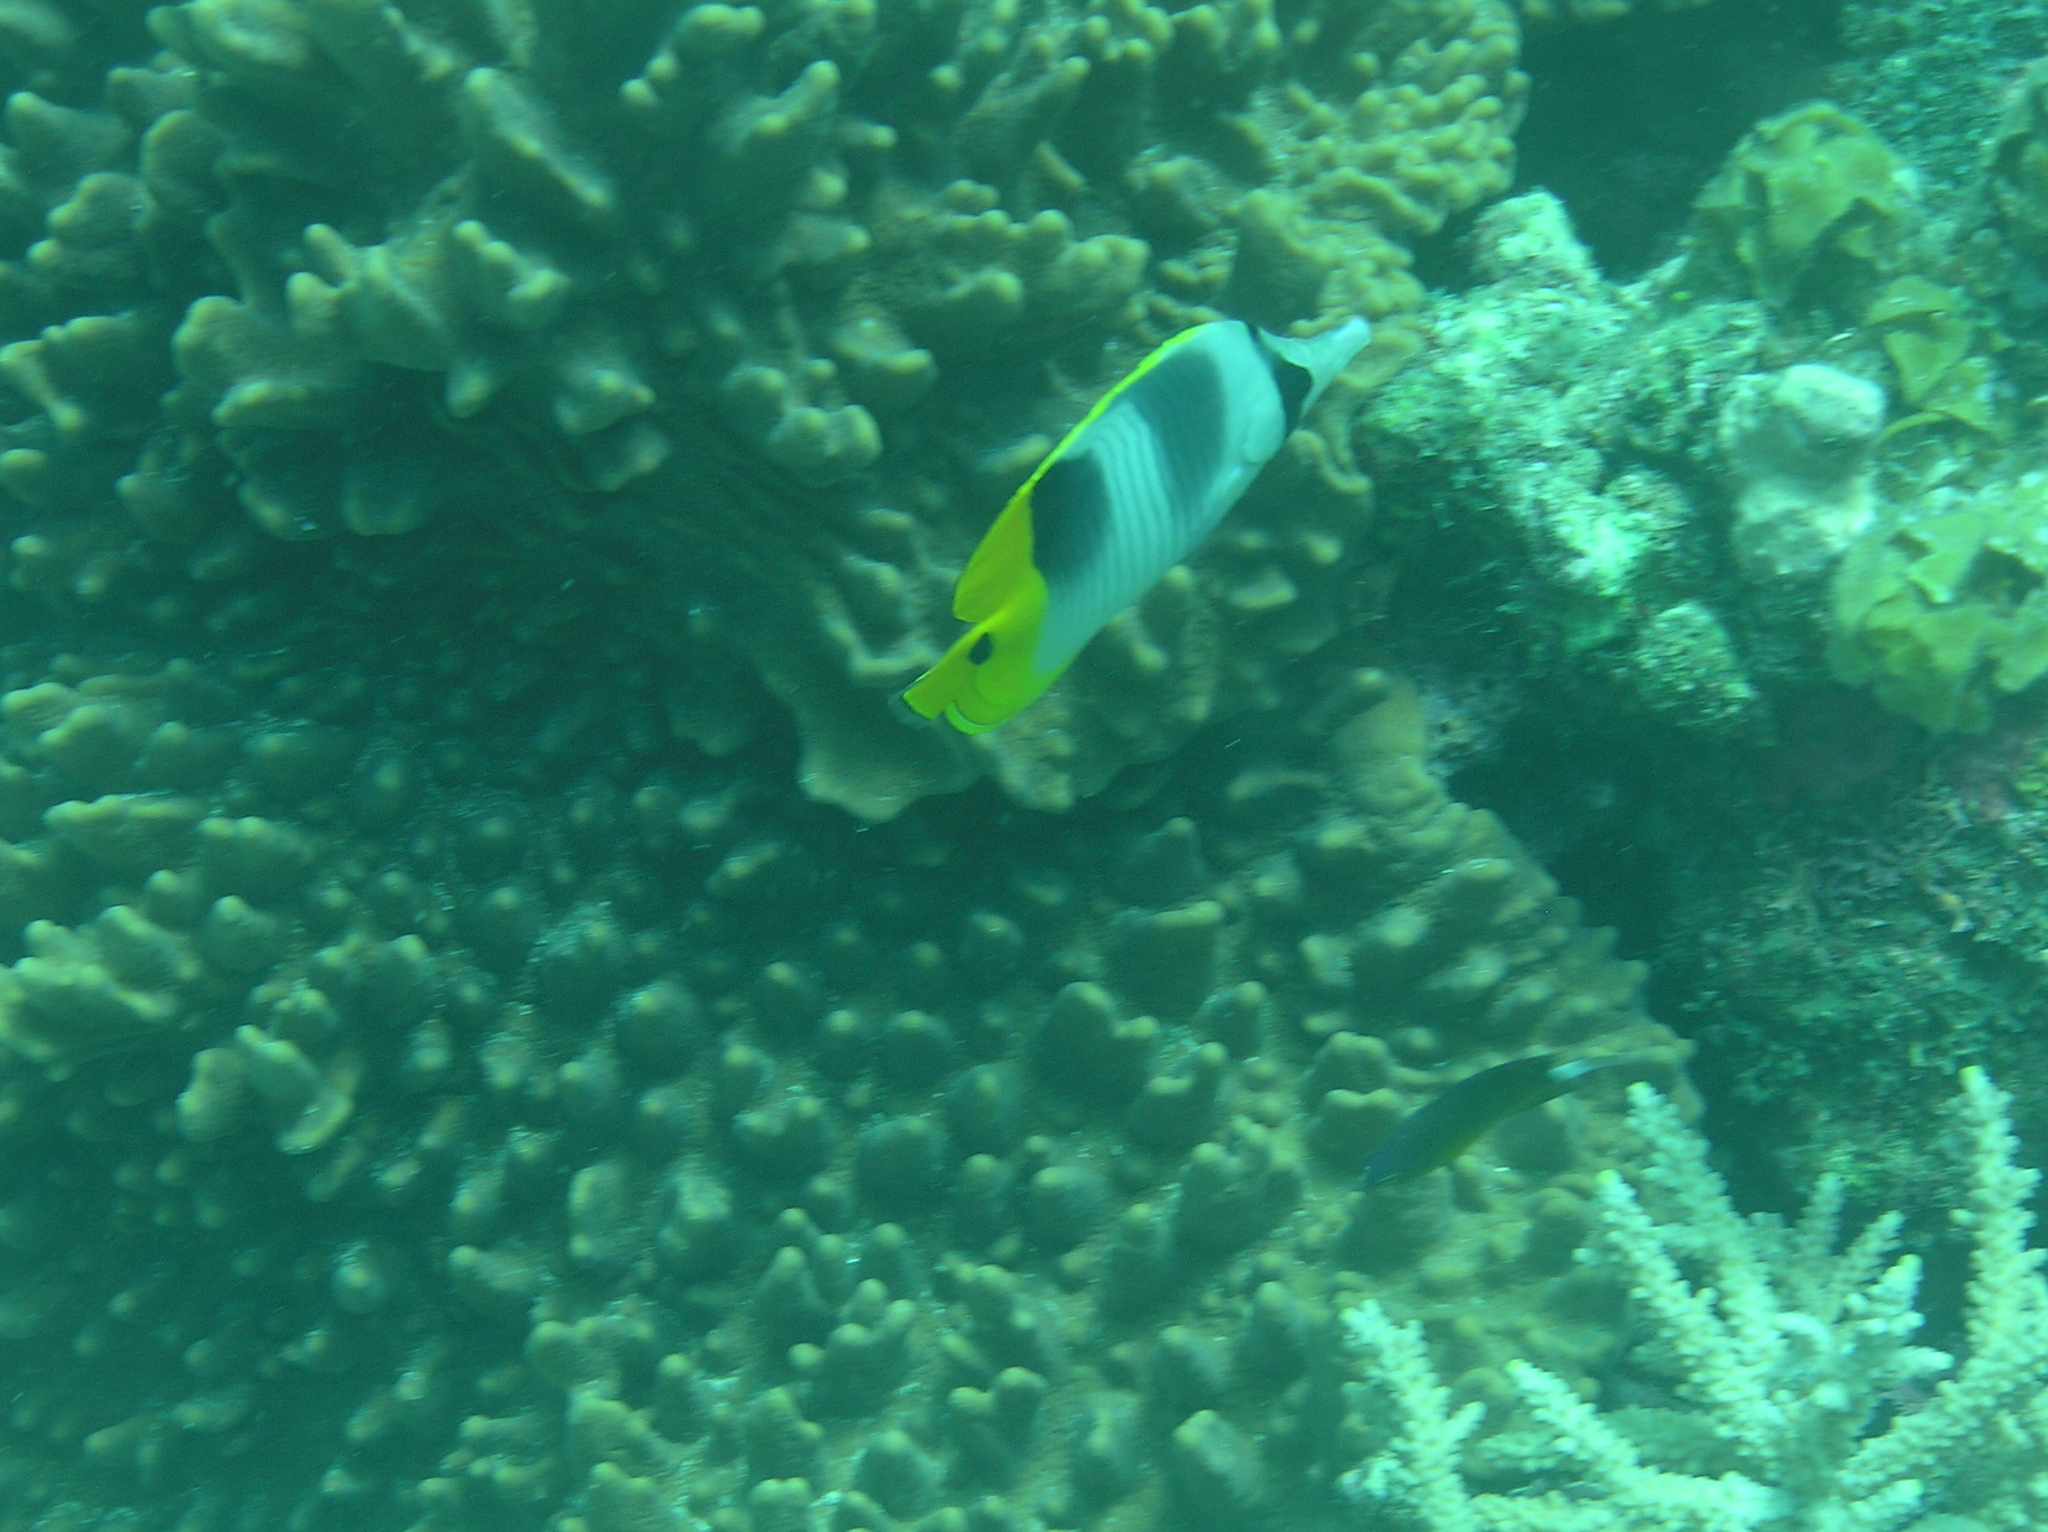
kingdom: Animalia
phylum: Chordata
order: Perciformes
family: Chaetodontidae
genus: Chaetodon
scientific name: Chaetodon ulietensis
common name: Pacific double-saddle butterflyfish
